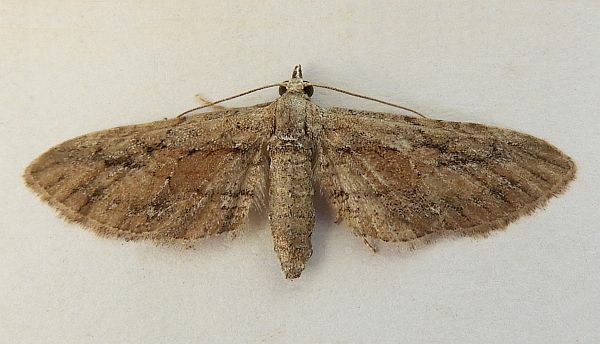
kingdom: Animalia
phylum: Arthropoda
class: Insecta
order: Lepidoptera
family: Geometridae
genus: Eupithecia
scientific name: Eupithecia placidata
